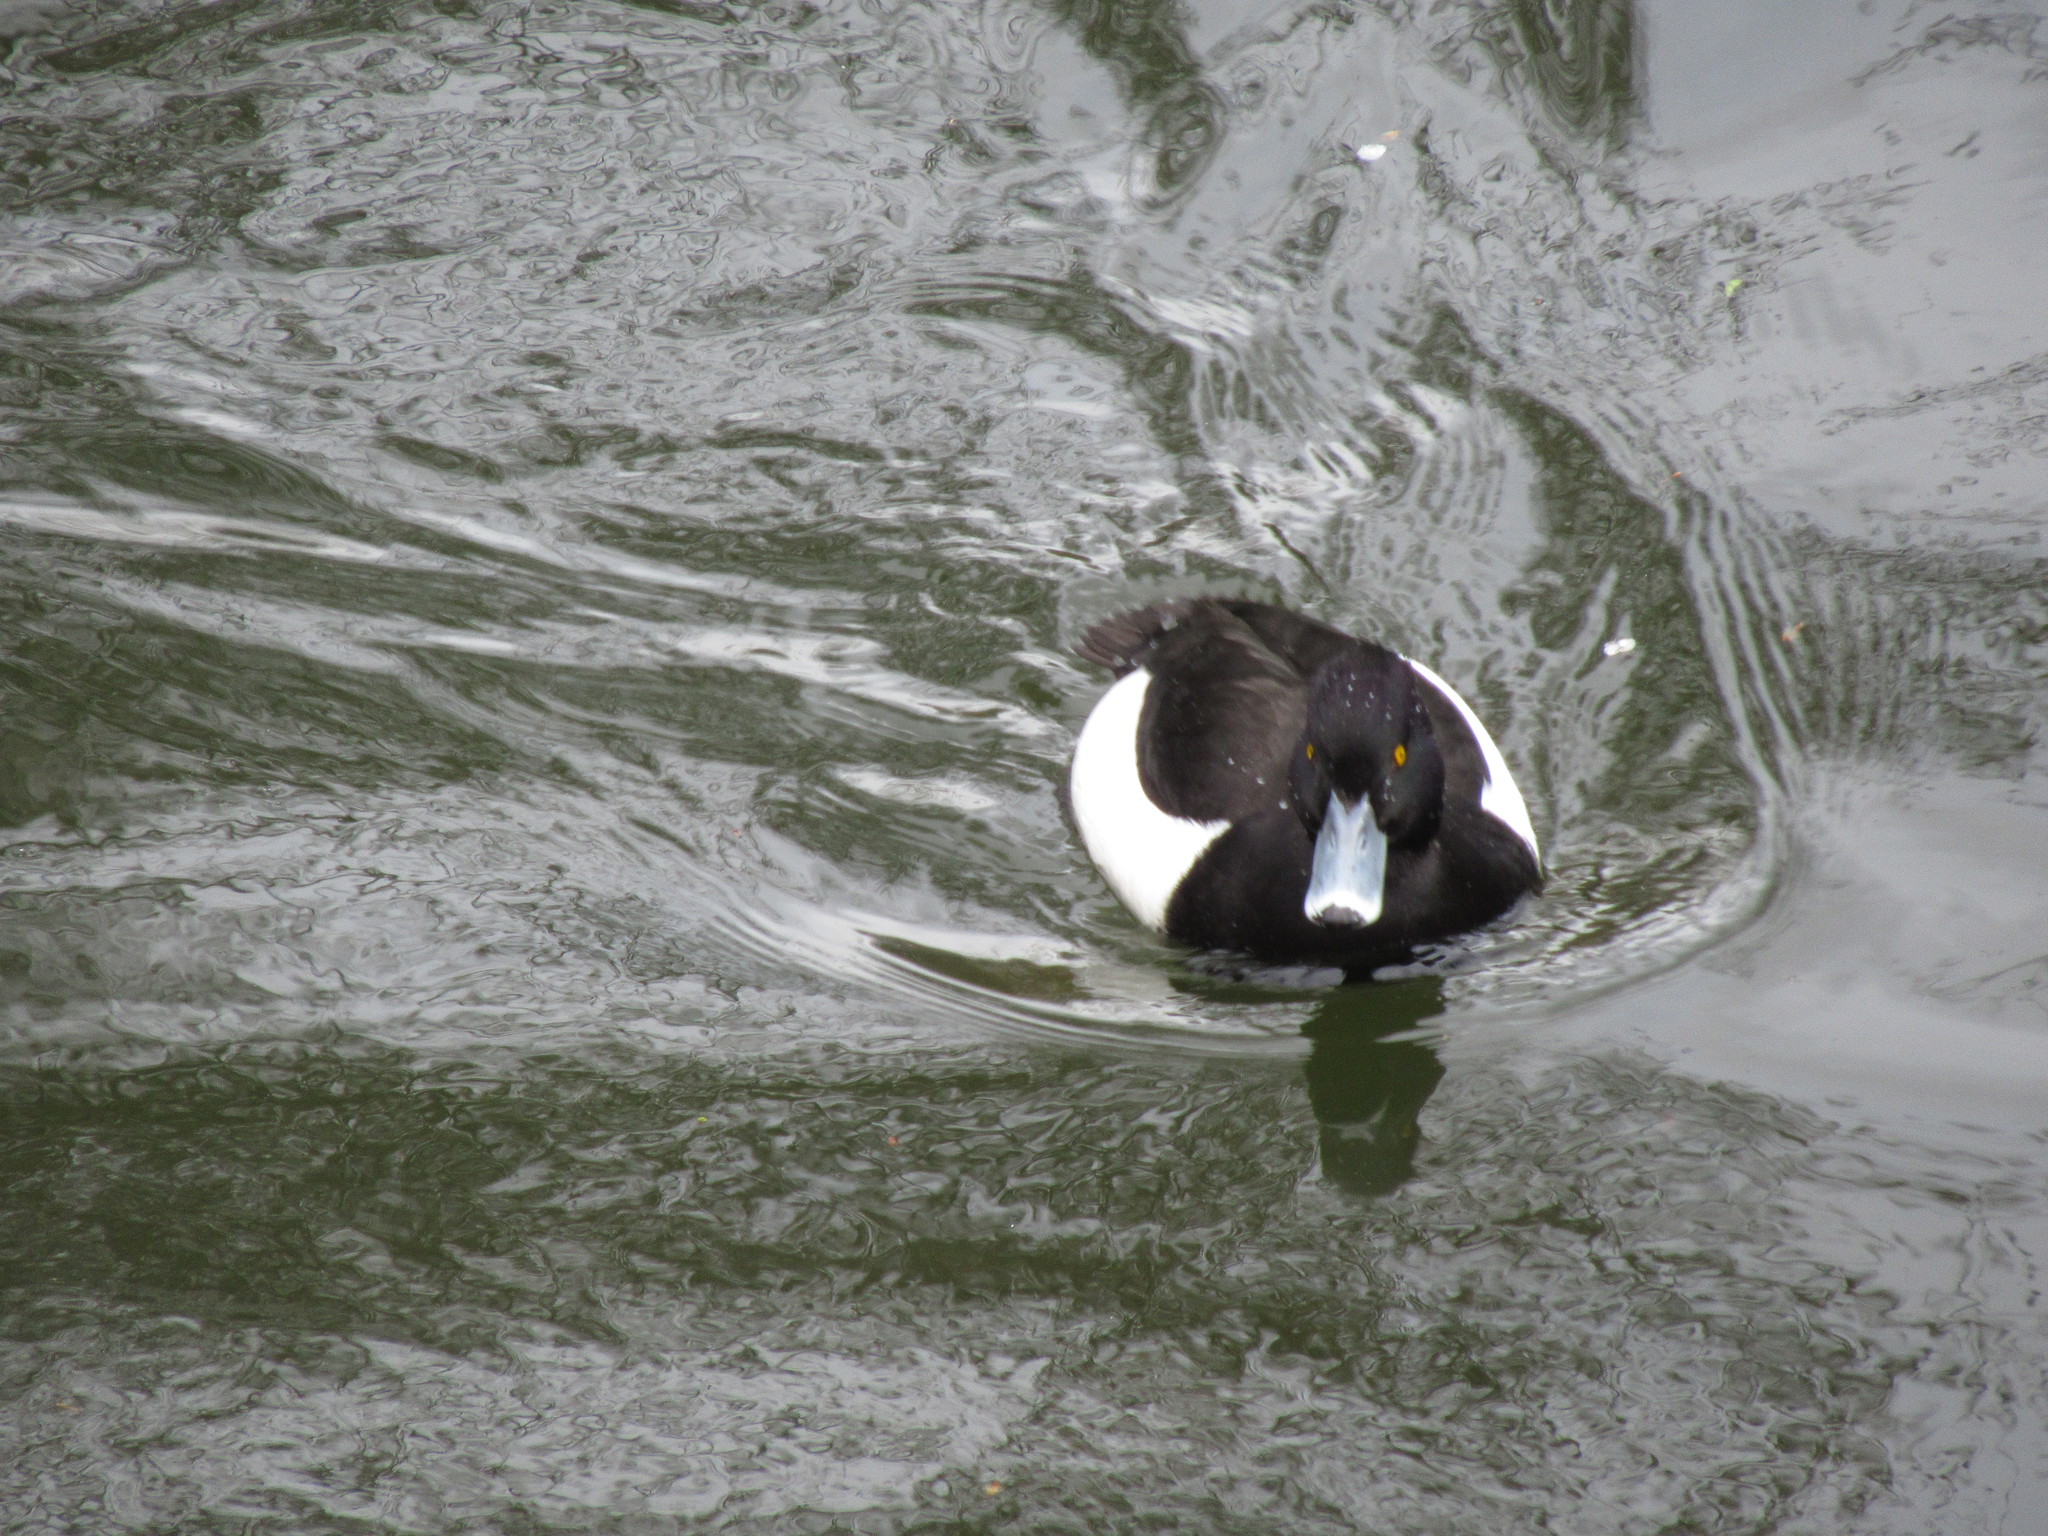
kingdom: Animalia
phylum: Chordata
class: Aves
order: Anseriformes
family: Anatidae
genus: Aythya
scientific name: Aythya fuligula
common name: Tufted duck
